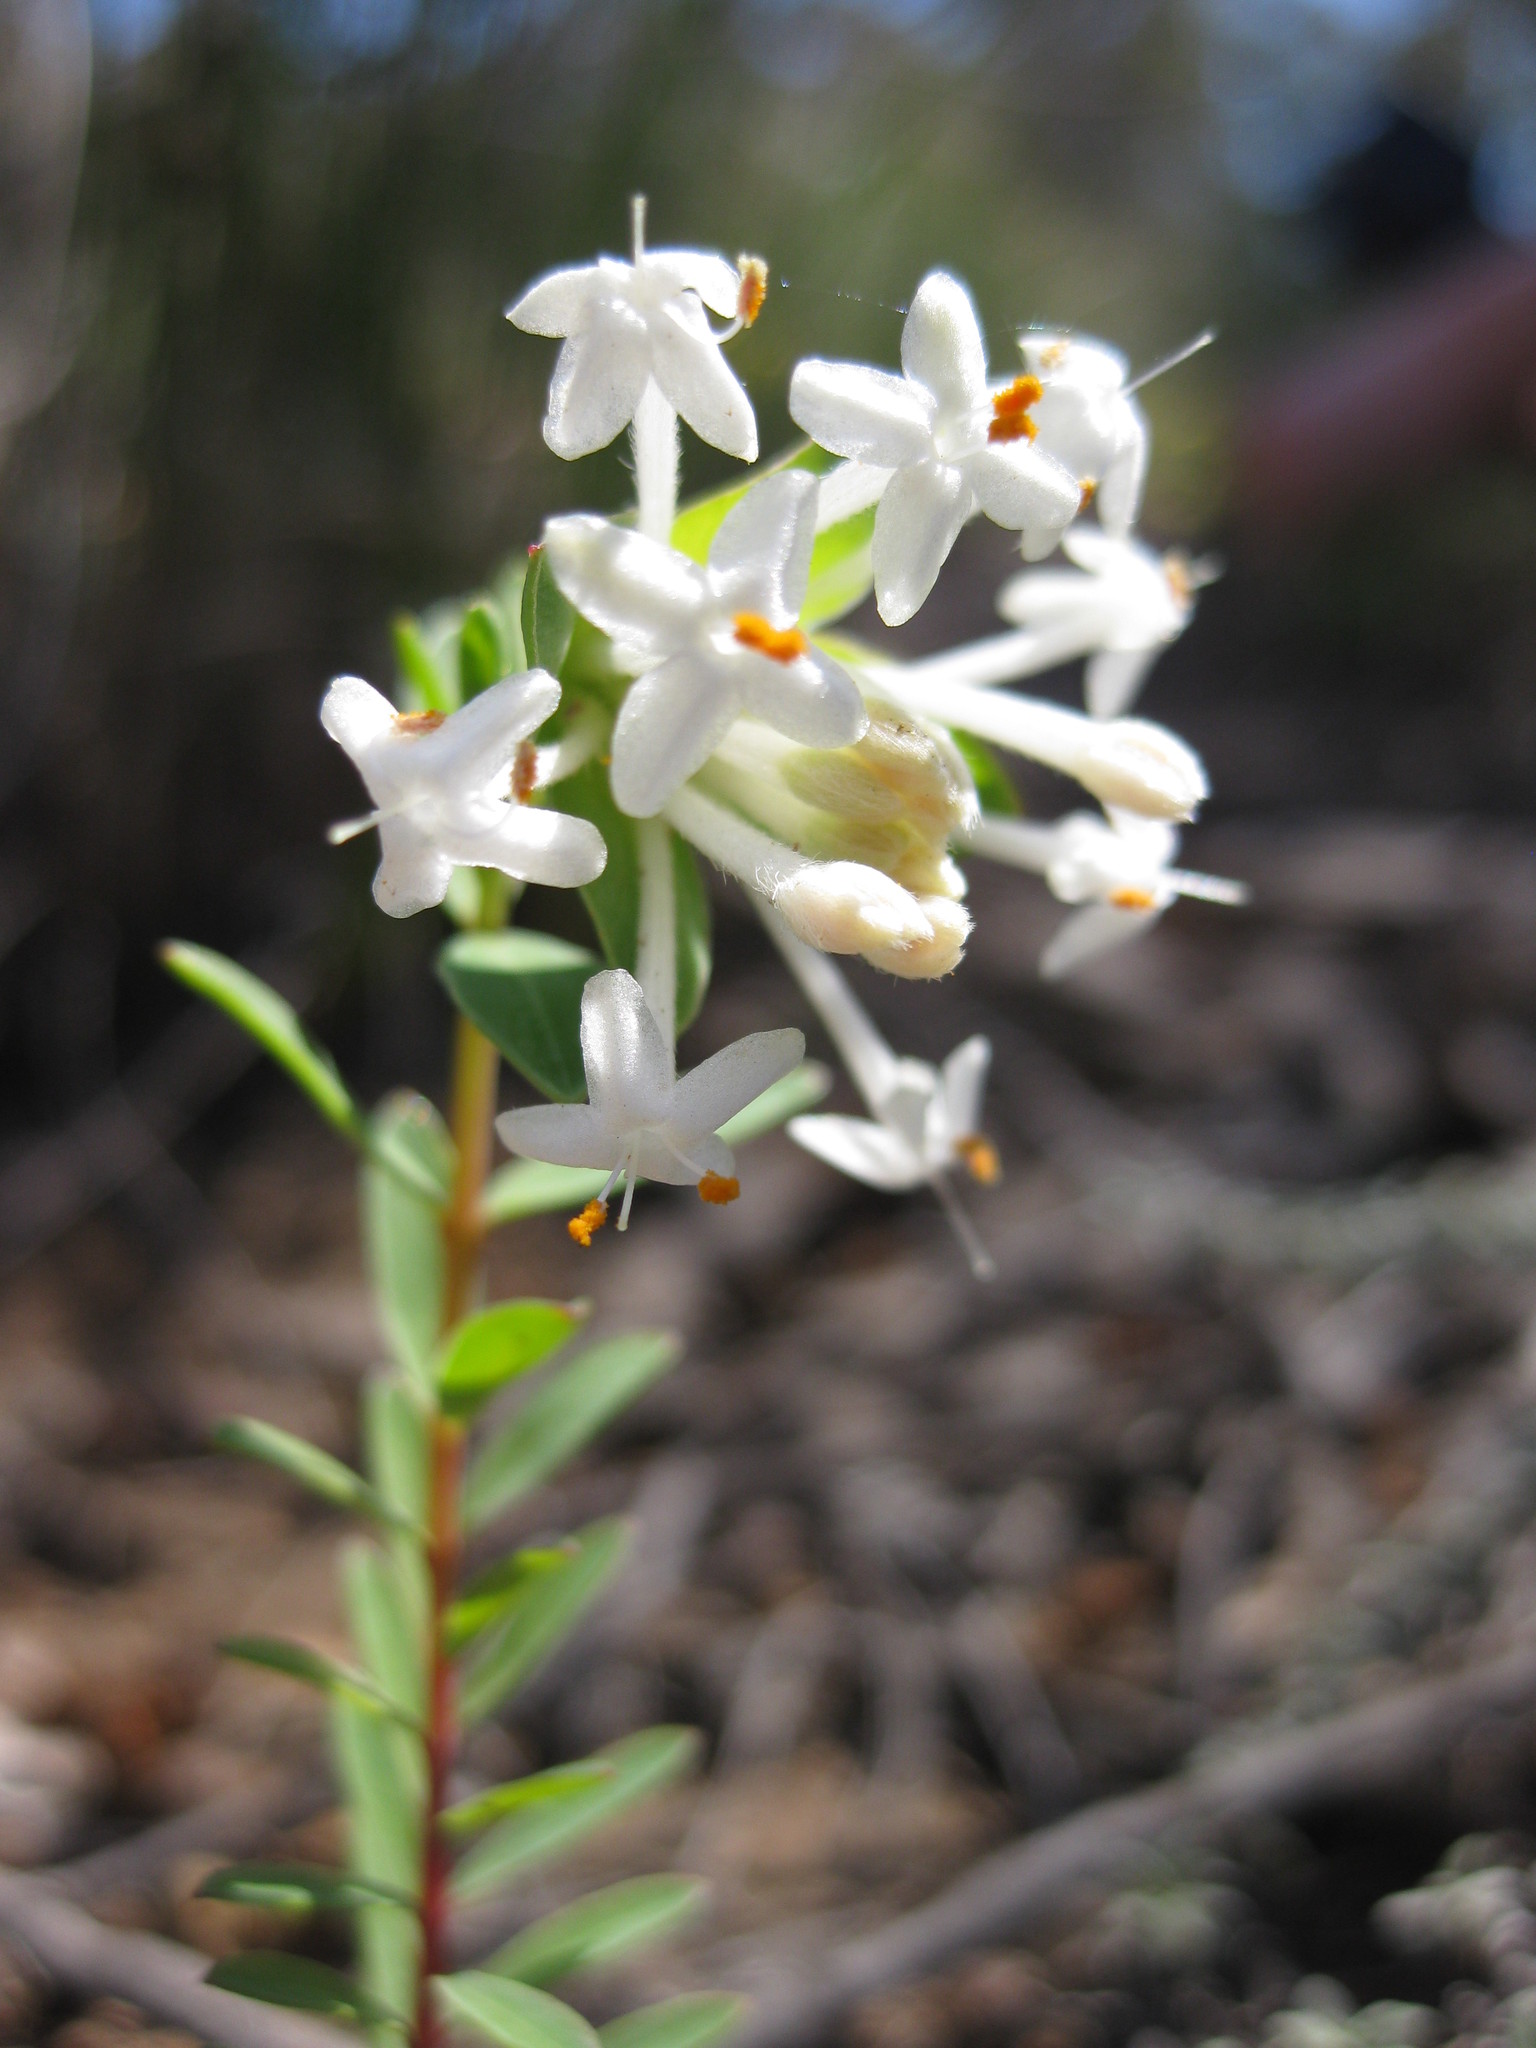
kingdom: Plantae
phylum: Tracheophyta
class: Magnoliopsida
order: Malvales
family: Thymelaeaceae
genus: Pimelea
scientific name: Pimelea linifolia
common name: Queen-of-the-bush
